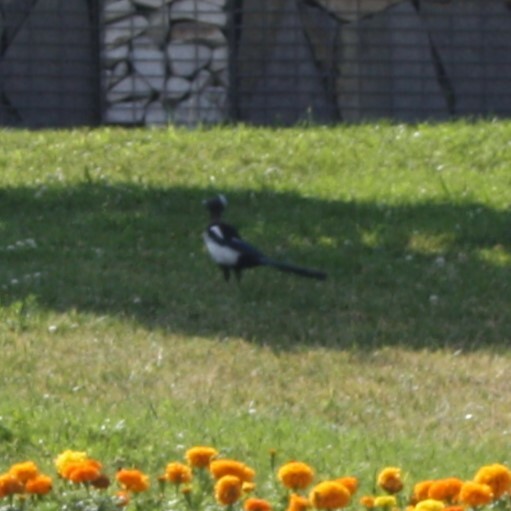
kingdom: Animalia
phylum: Chordata
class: Aves
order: Passeriformes
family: Corvidae
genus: Pica
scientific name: Pica pica
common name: Eurasian magpie
